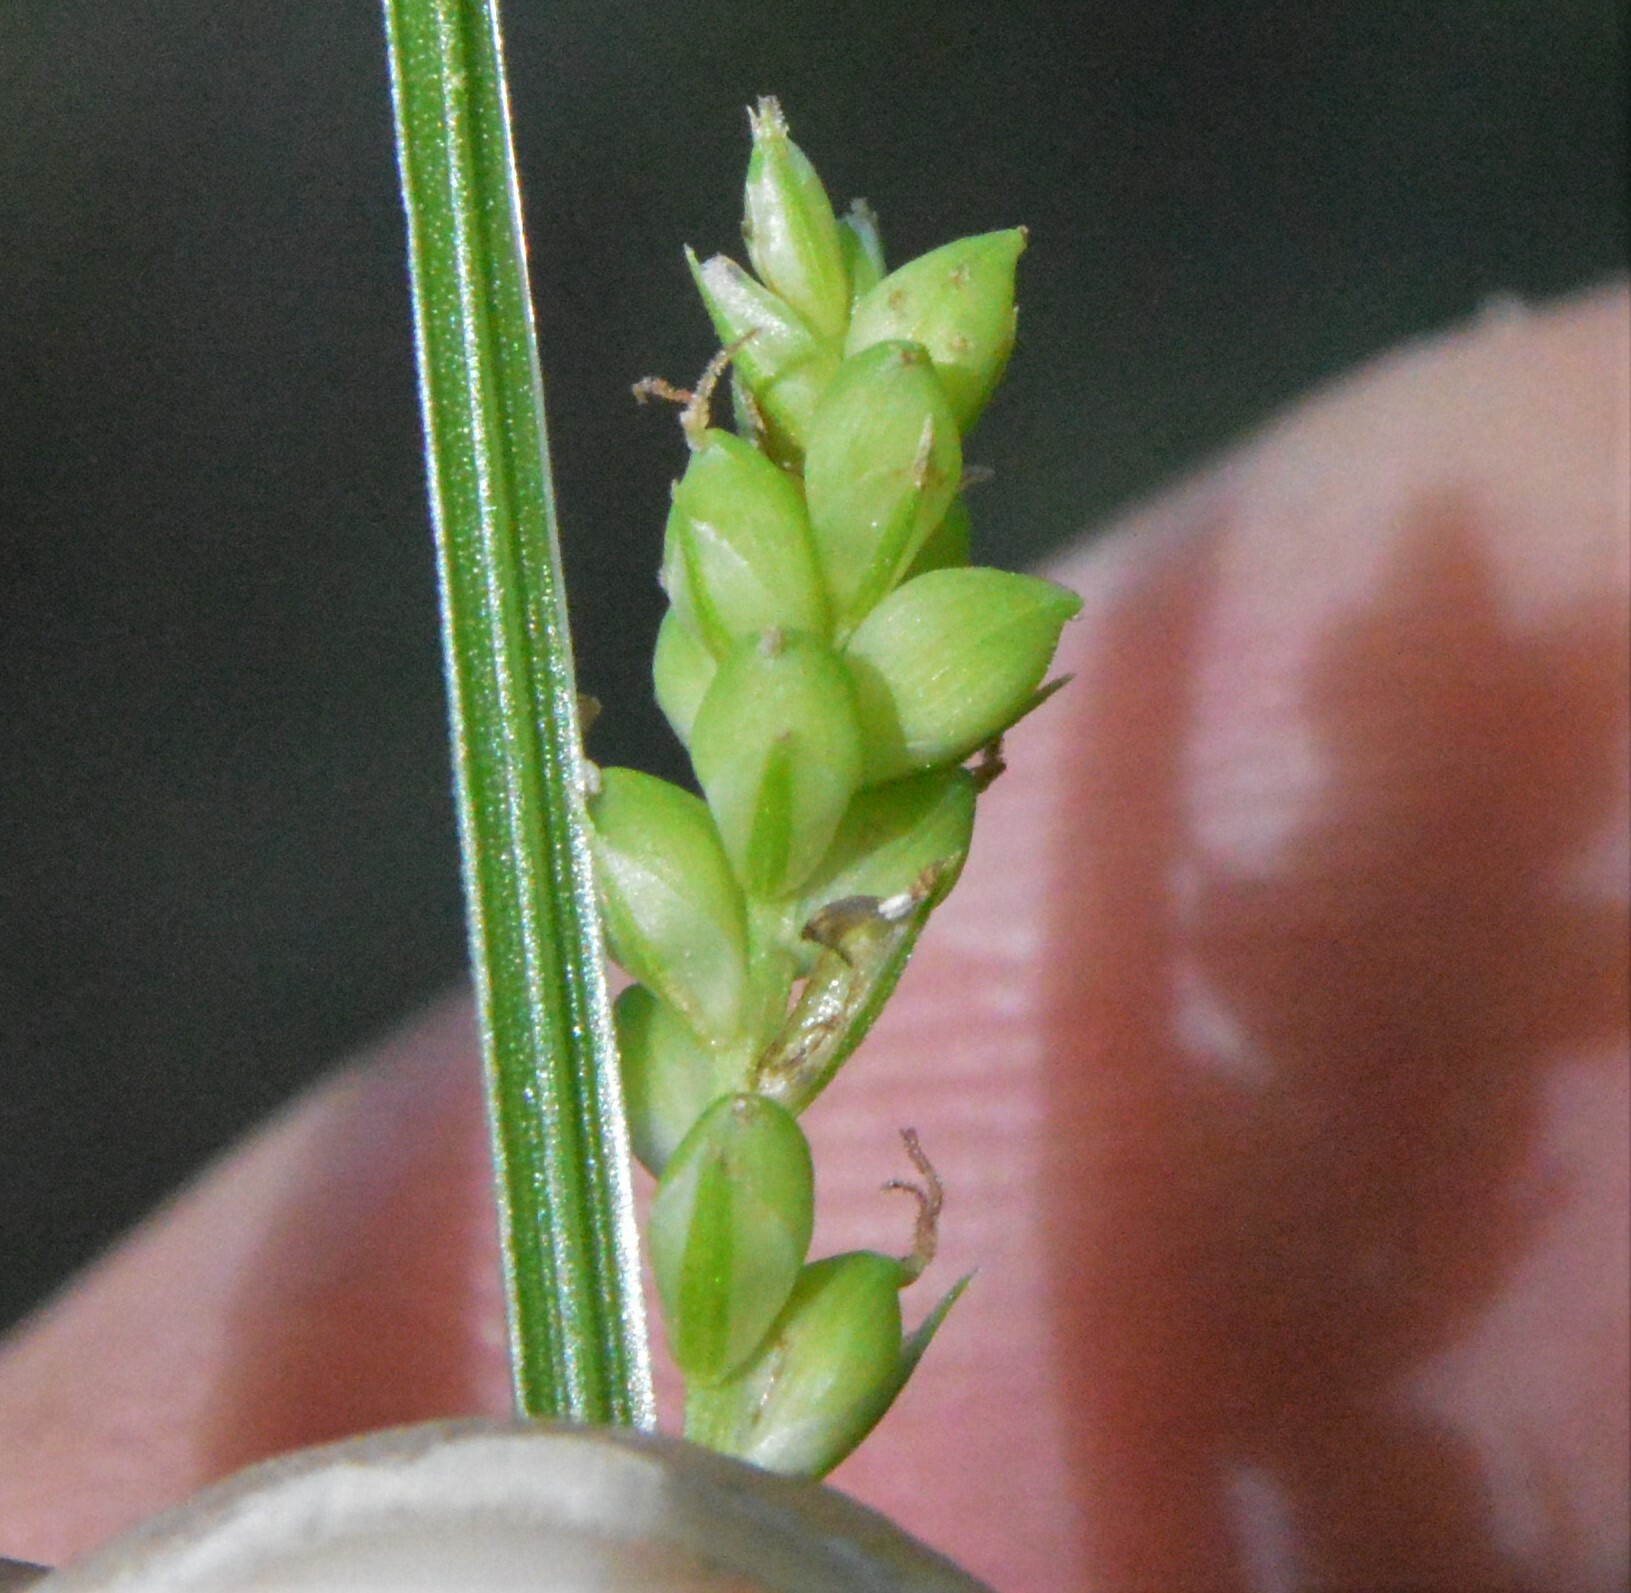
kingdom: Plantae
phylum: Tracheophyta
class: Liliopsida
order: Poales
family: Cyperaceae
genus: Carex
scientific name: Carex blanda
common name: Bland sedge
